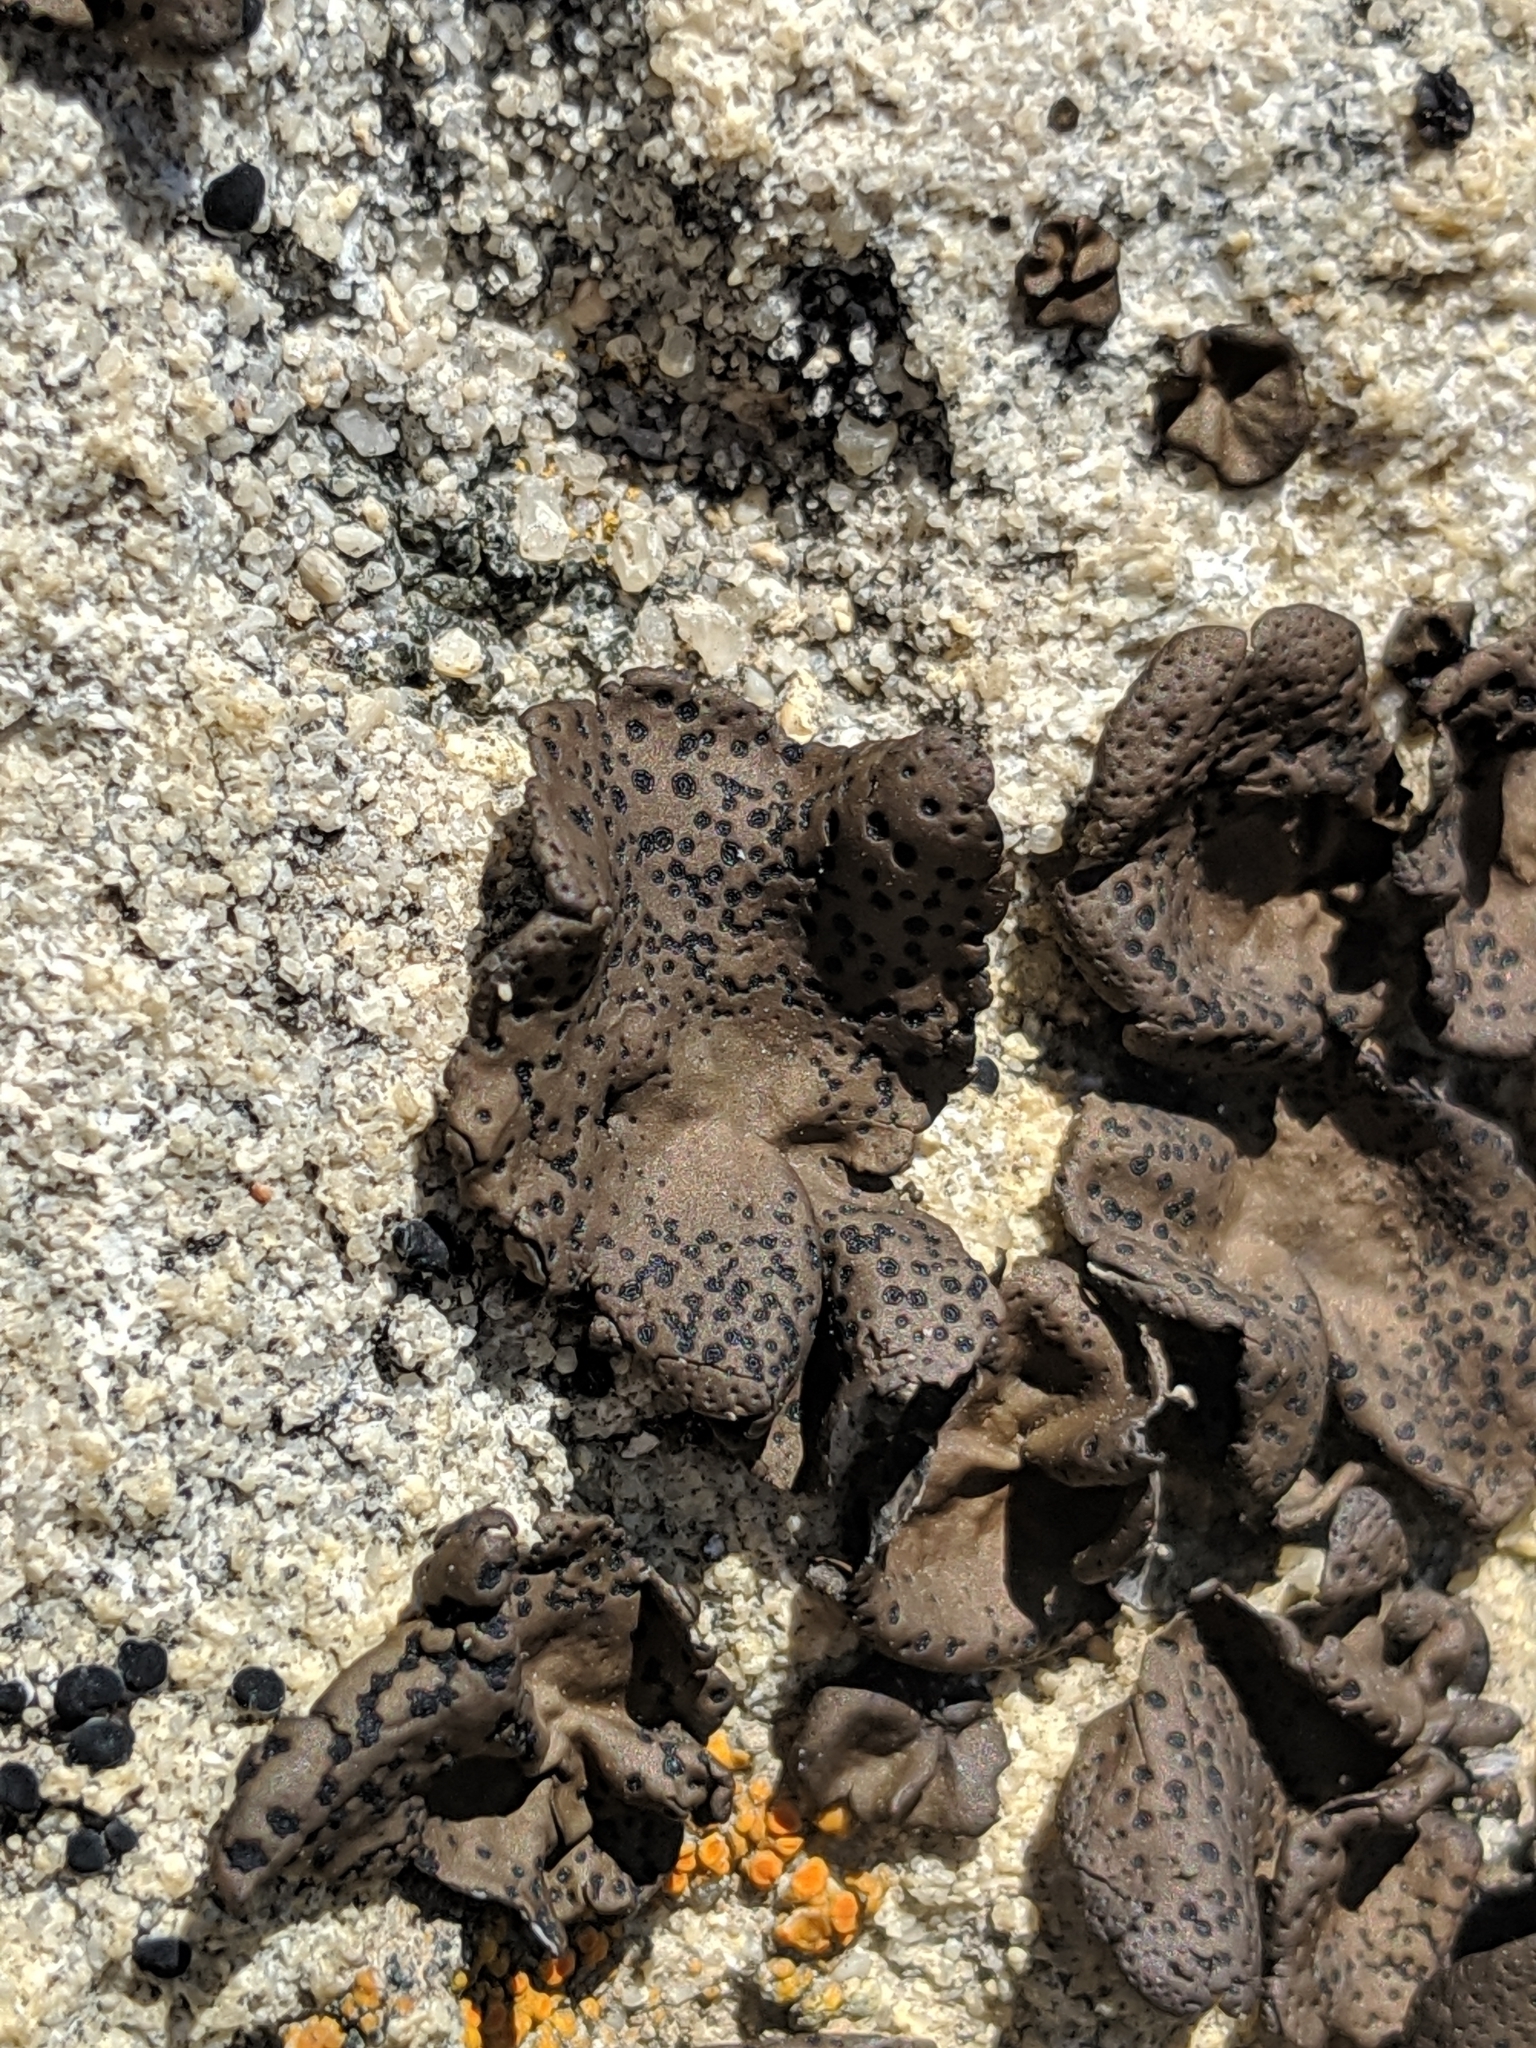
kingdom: Fungi
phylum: Ascomycota
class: Lecanoromycetes
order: Umbilicariales
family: Umbilicariaceae
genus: Umbilicaria
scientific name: Umbilicaria phaea
